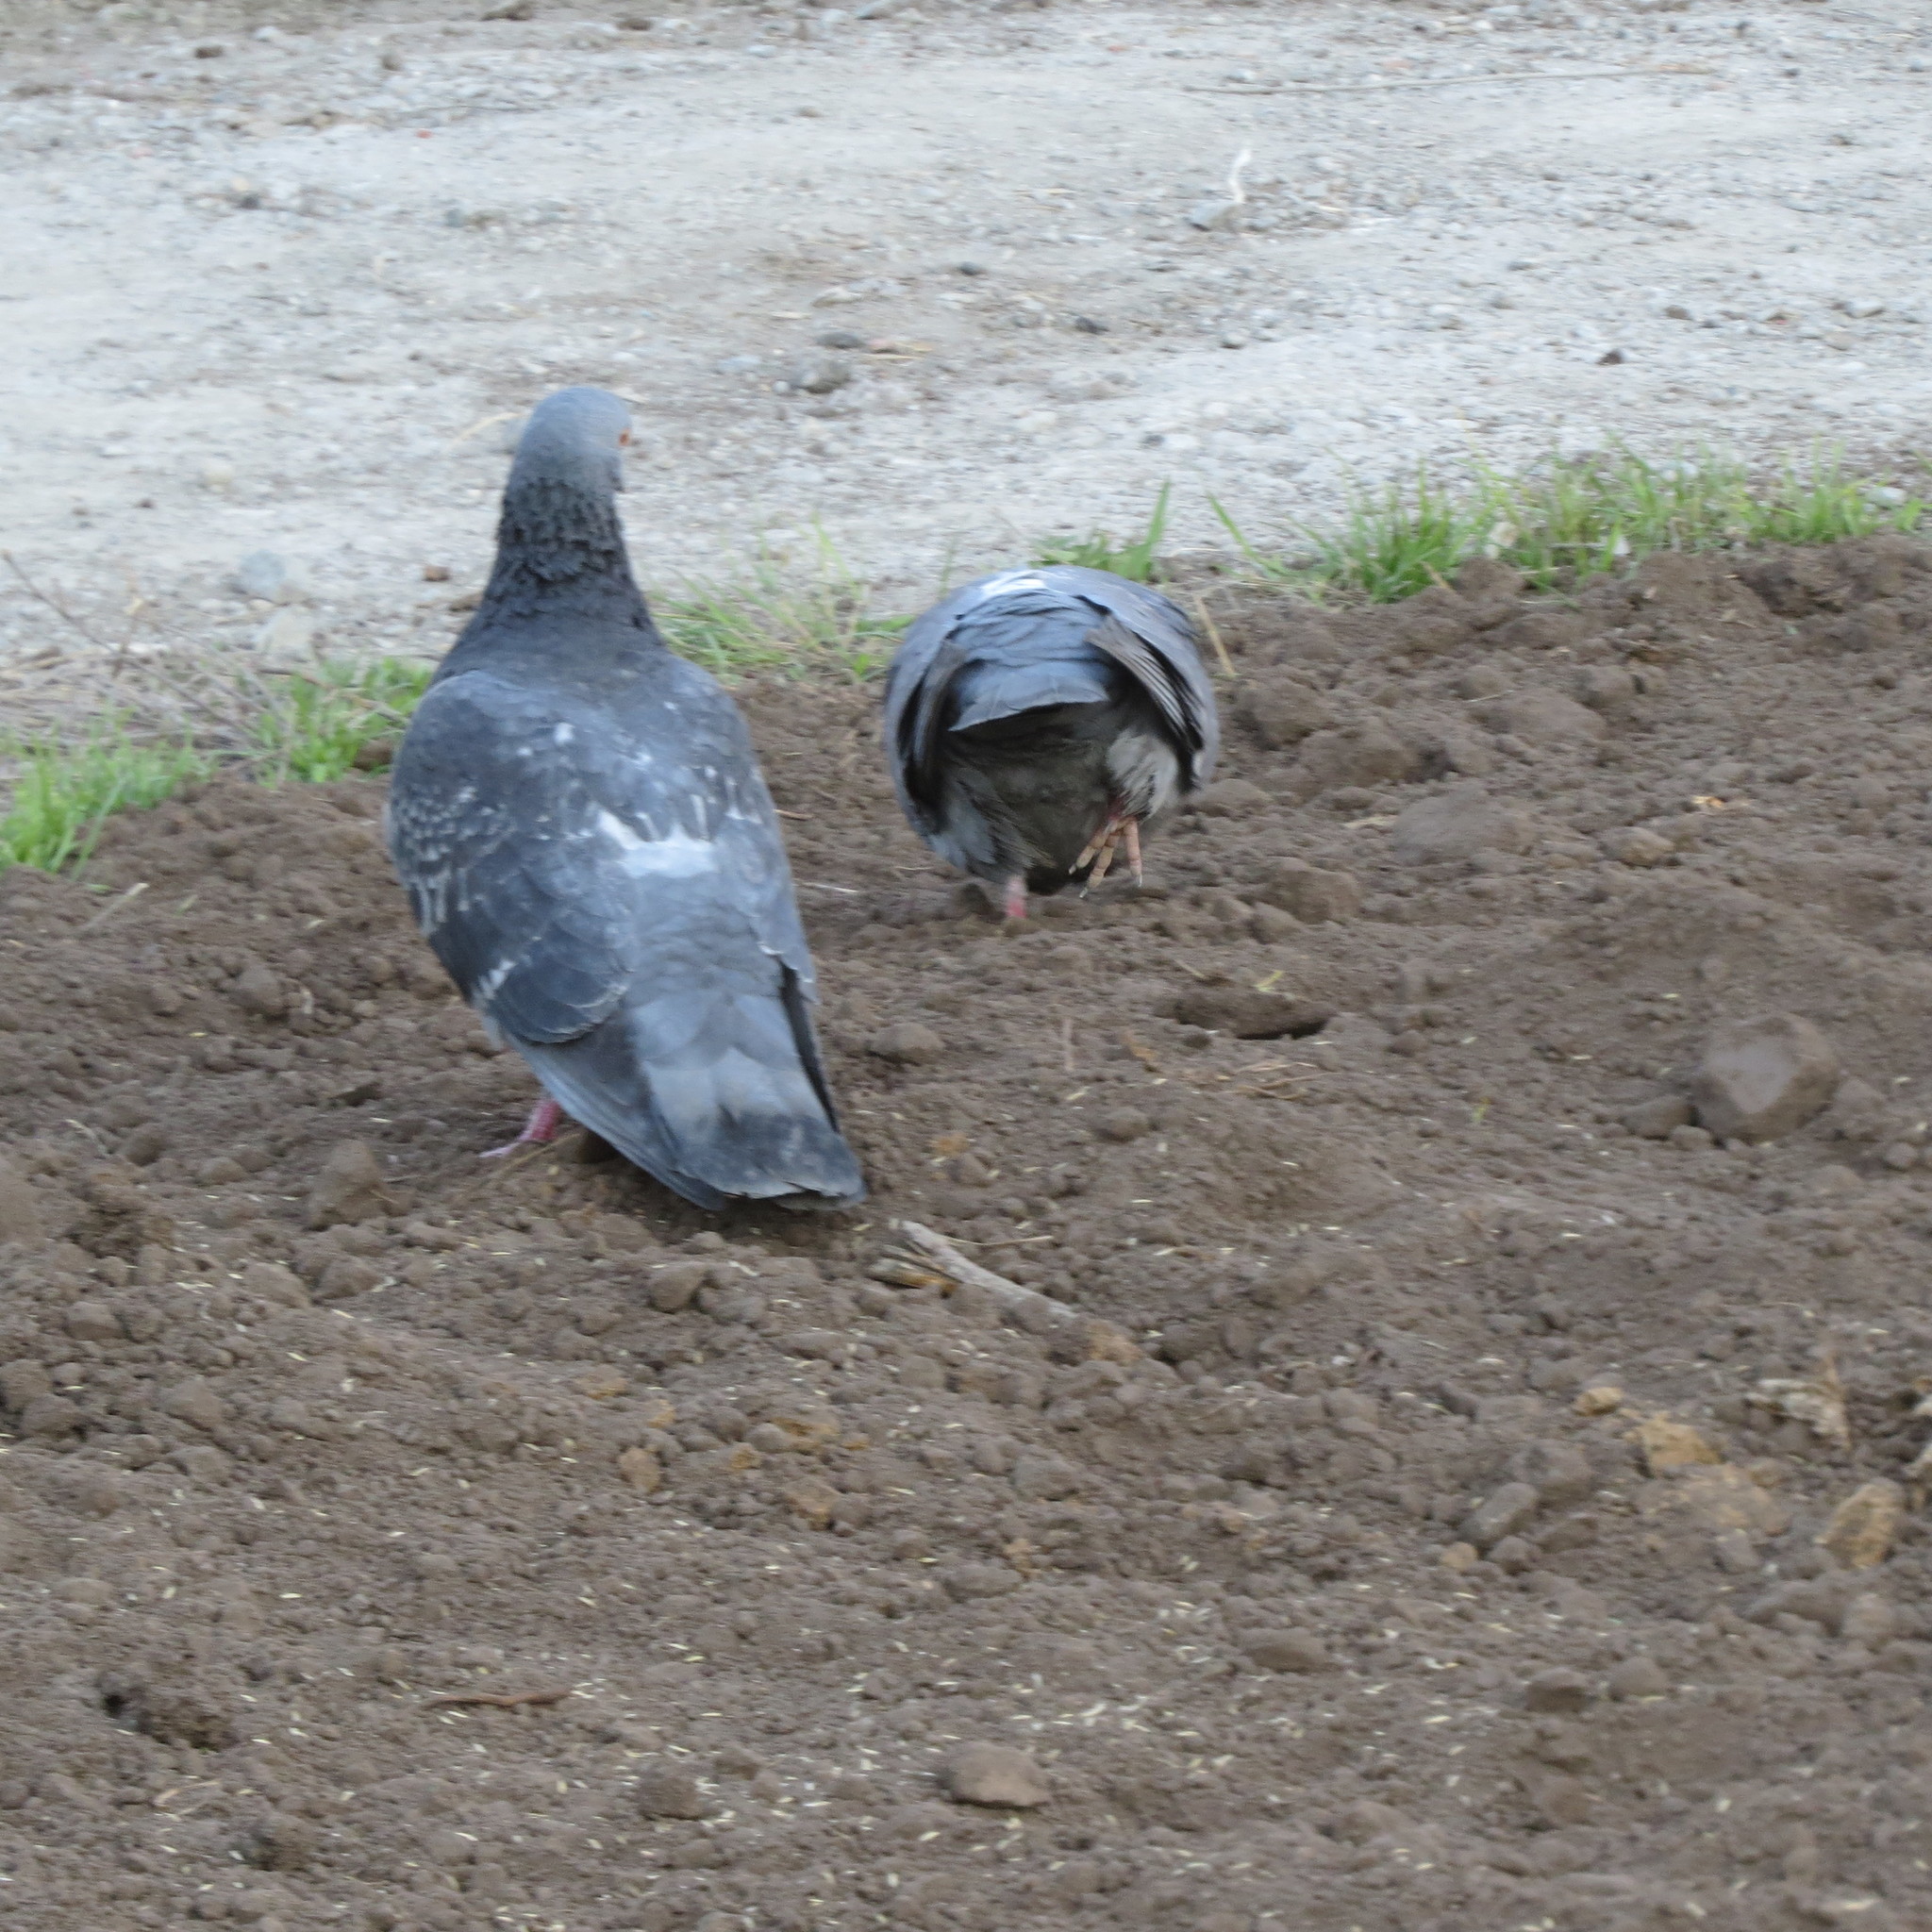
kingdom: Animalia
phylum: Chordata
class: Aves
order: Columbiformes
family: Columbidae
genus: Columba
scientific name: Columba livia
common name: Rock pigeon
